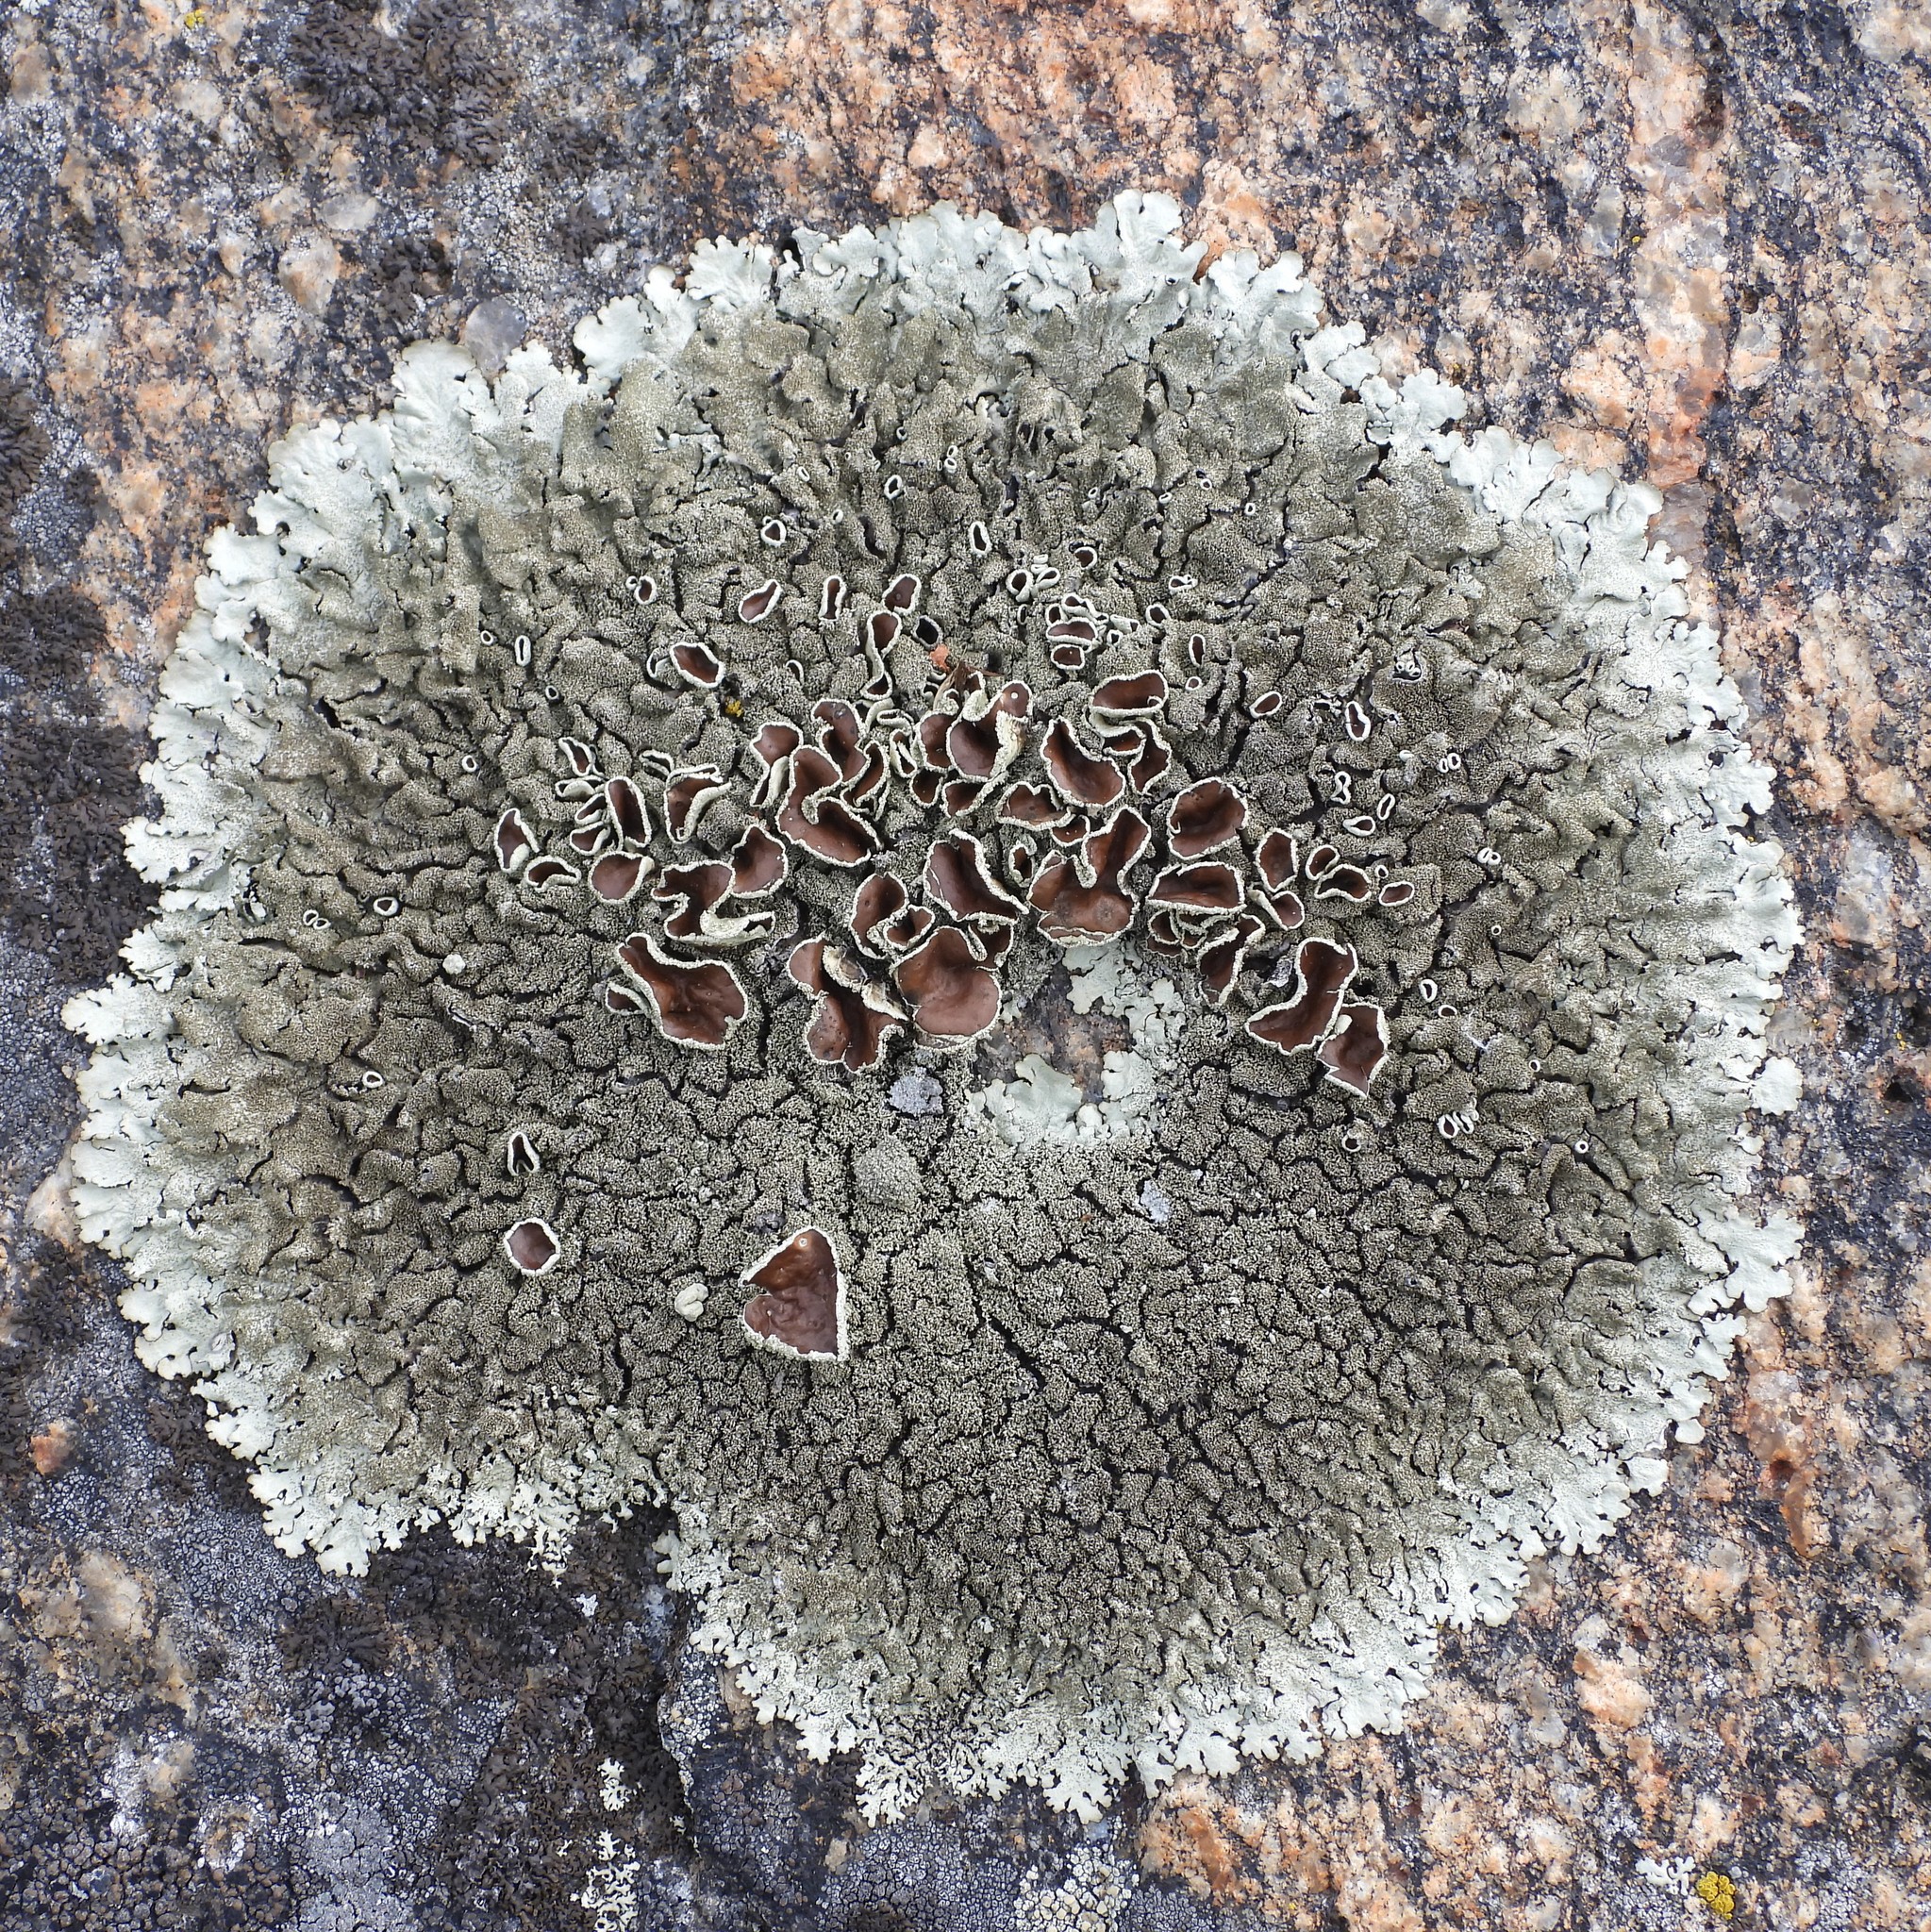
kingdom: Fungi
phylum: Ascomycota
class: Lecanoromycetes
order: Lecanorales
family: Parmeliaceae
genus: Xanthoparmelia
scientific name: Xanthoparmelia conspersa
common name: Peppered rock shield
